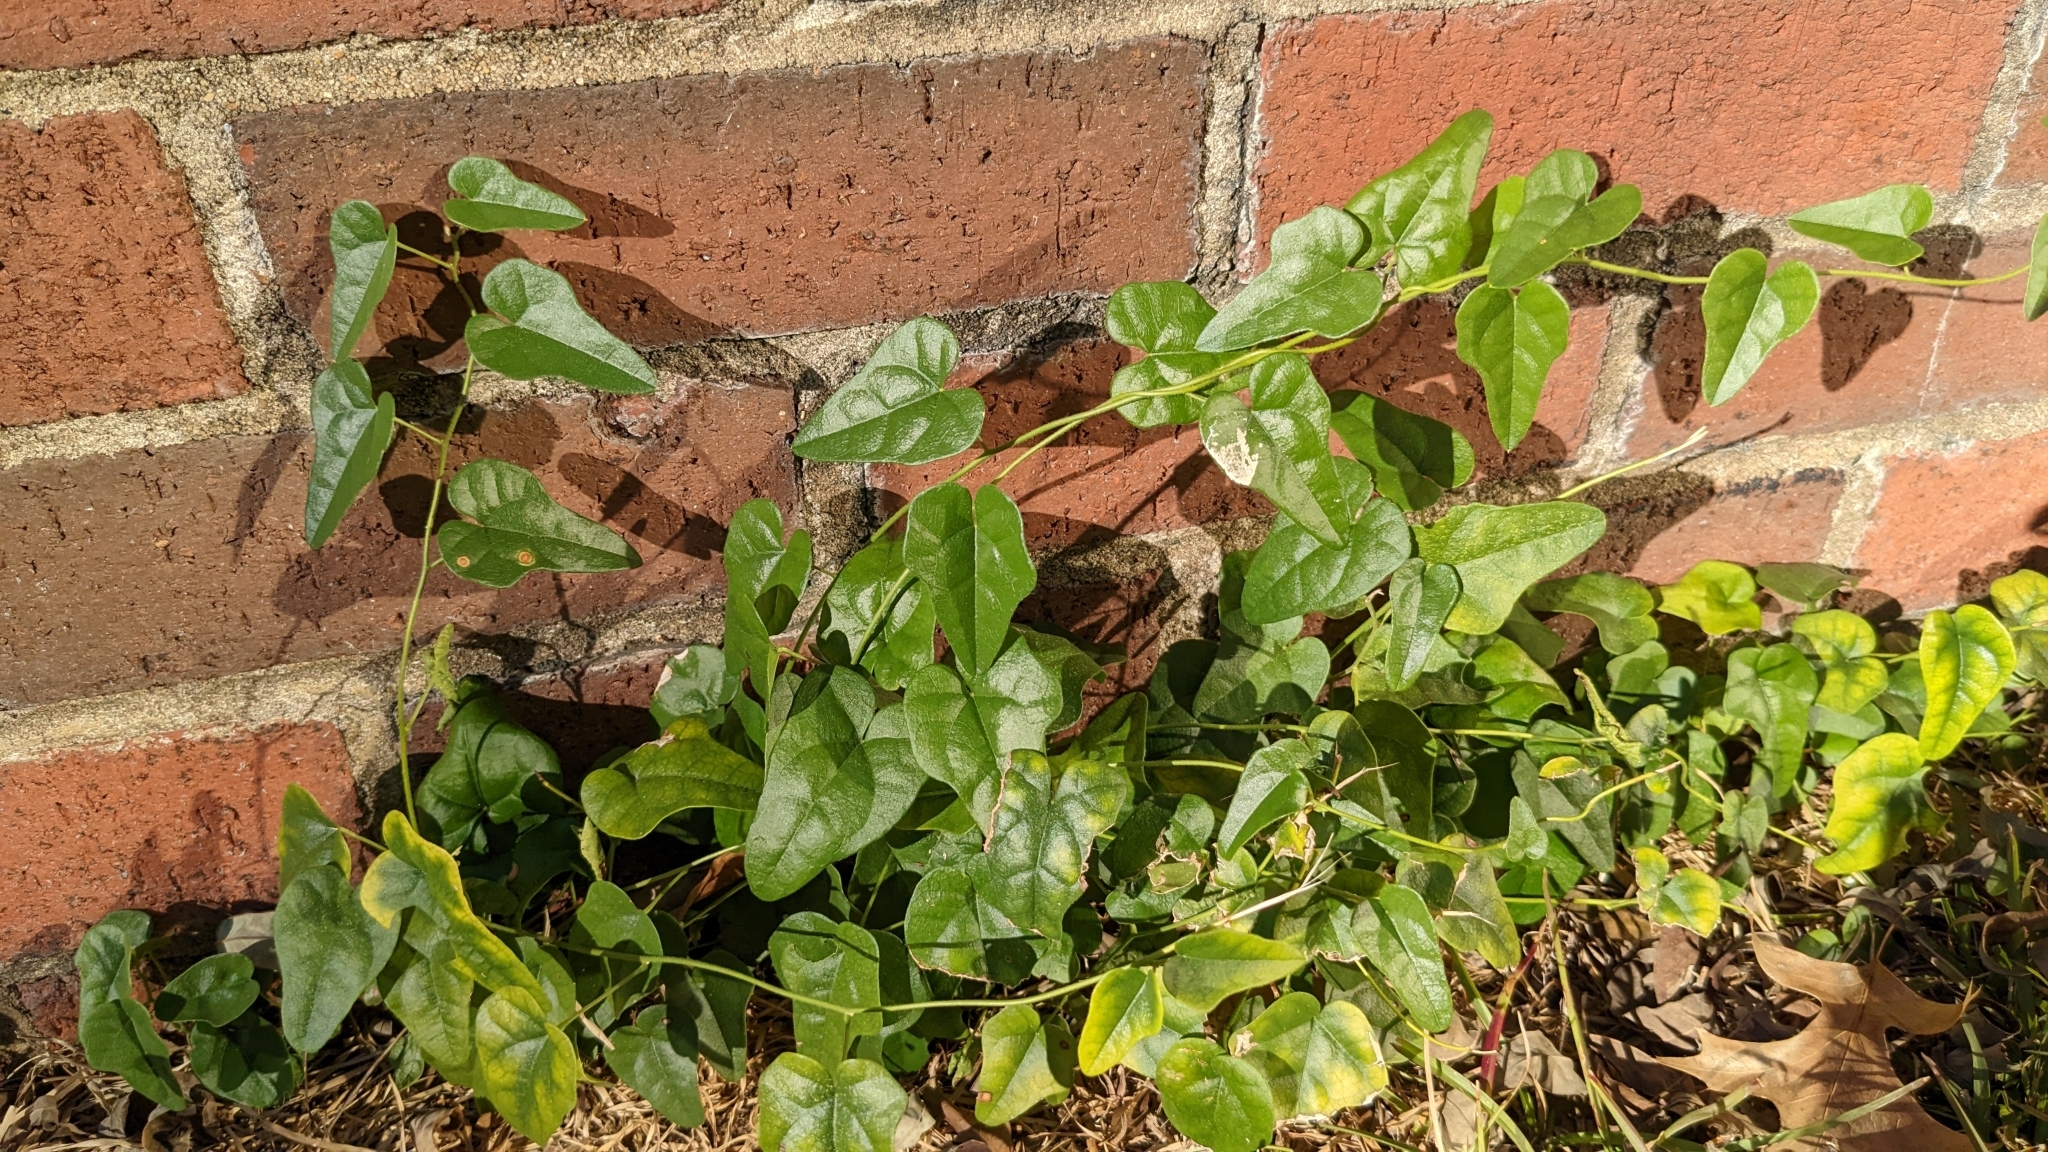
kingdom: Plantae
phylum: Tracheophyta
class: Magnoliopsida
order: Ranunculales
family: Menispermaceae
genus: Cocculus
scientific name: Cocculus carolinus
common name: Carolina moonseed
